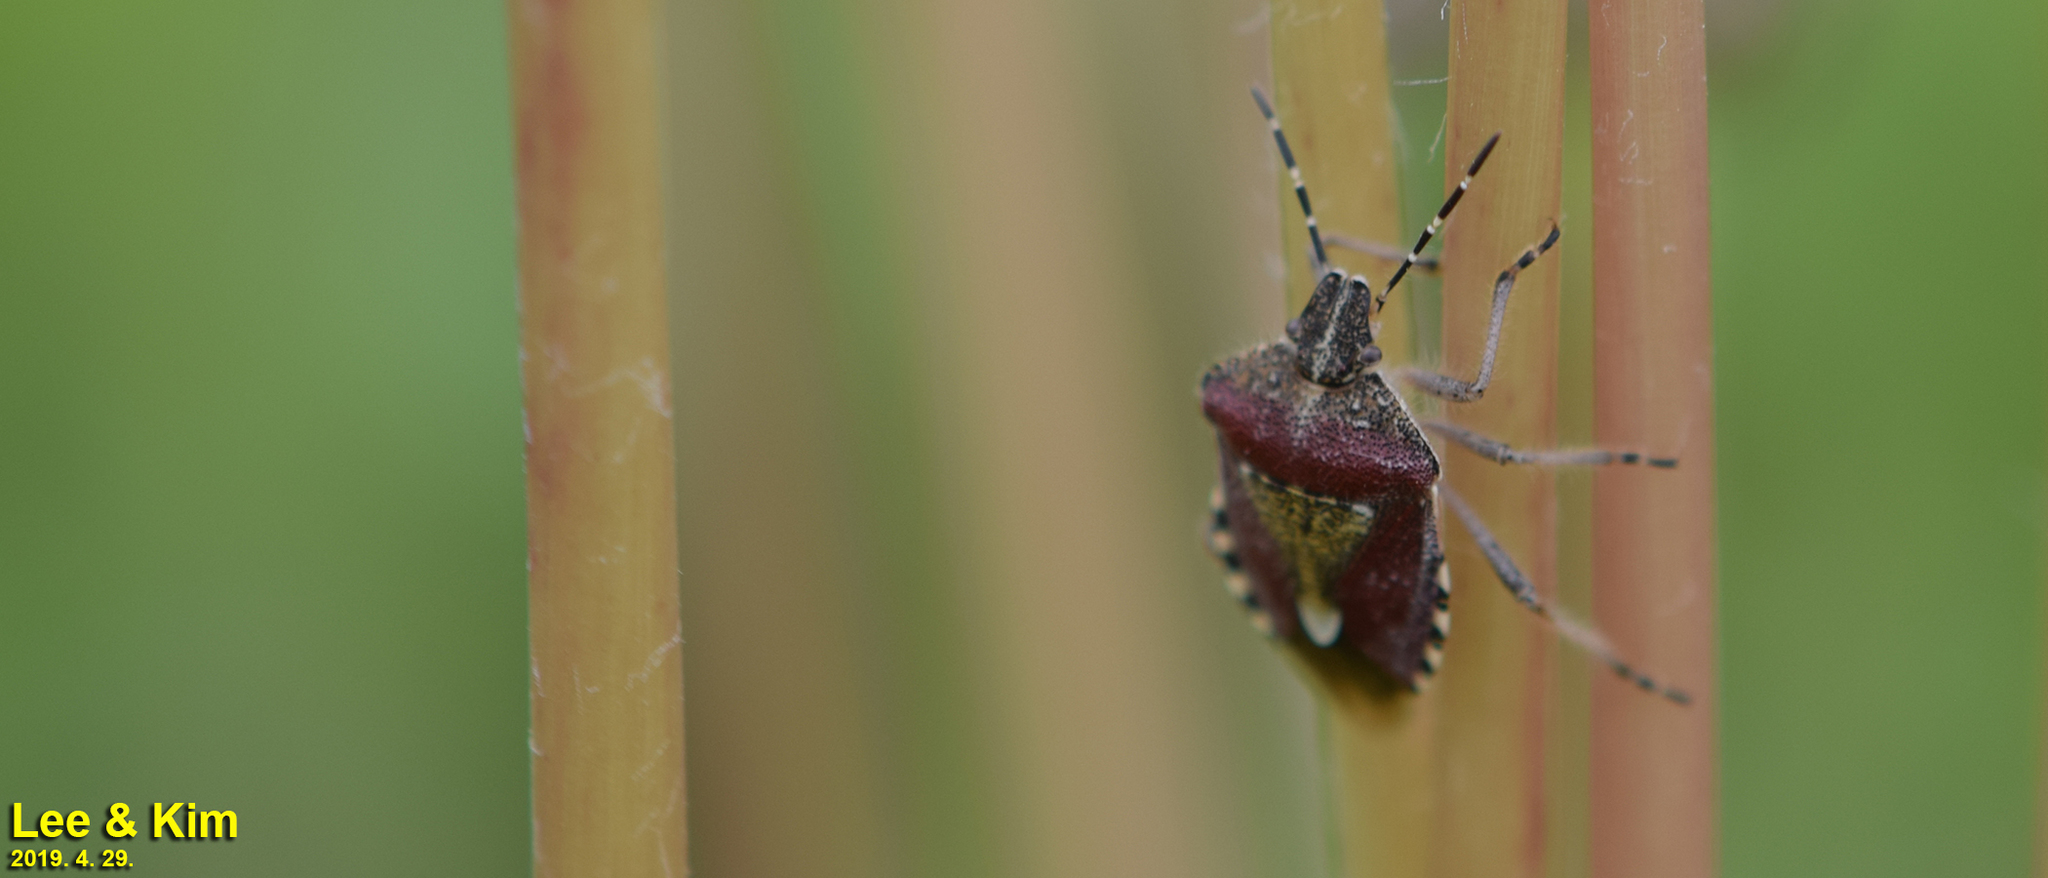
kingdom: Animalia
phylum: Arthropoda
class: Insecta
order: Hemiptera
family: Pentatomidae
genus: Dolycoris
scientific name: Dolycoris baccarum
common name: Sloe bug
